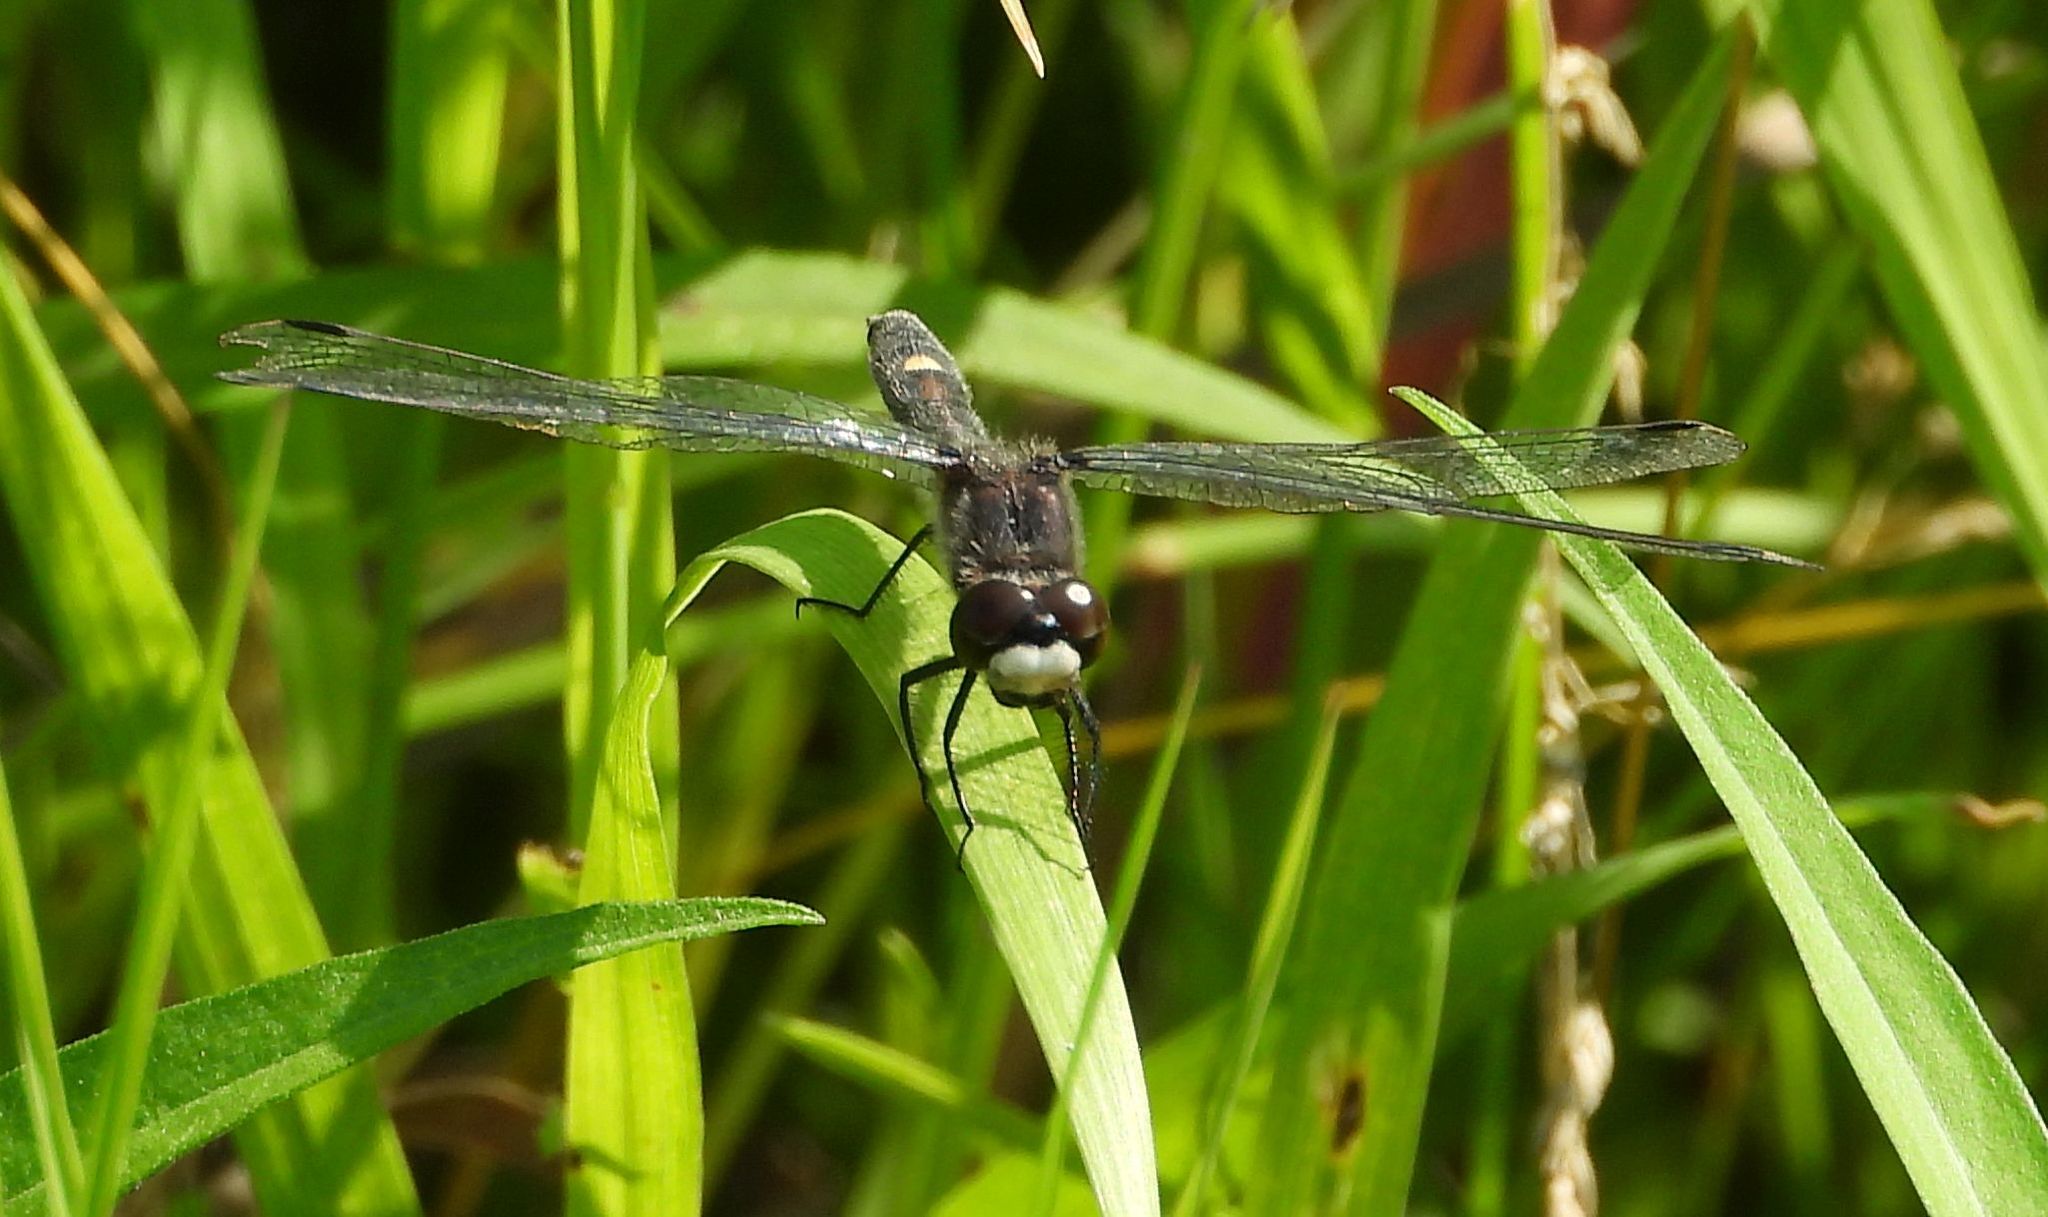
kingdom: Animalia
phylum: Arthropoda
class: Insecta
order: Odonata
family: Libellulidae
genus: Leucorrhinia
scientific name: Leucorrhinia intacta
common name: Dot-tailed whiteface
